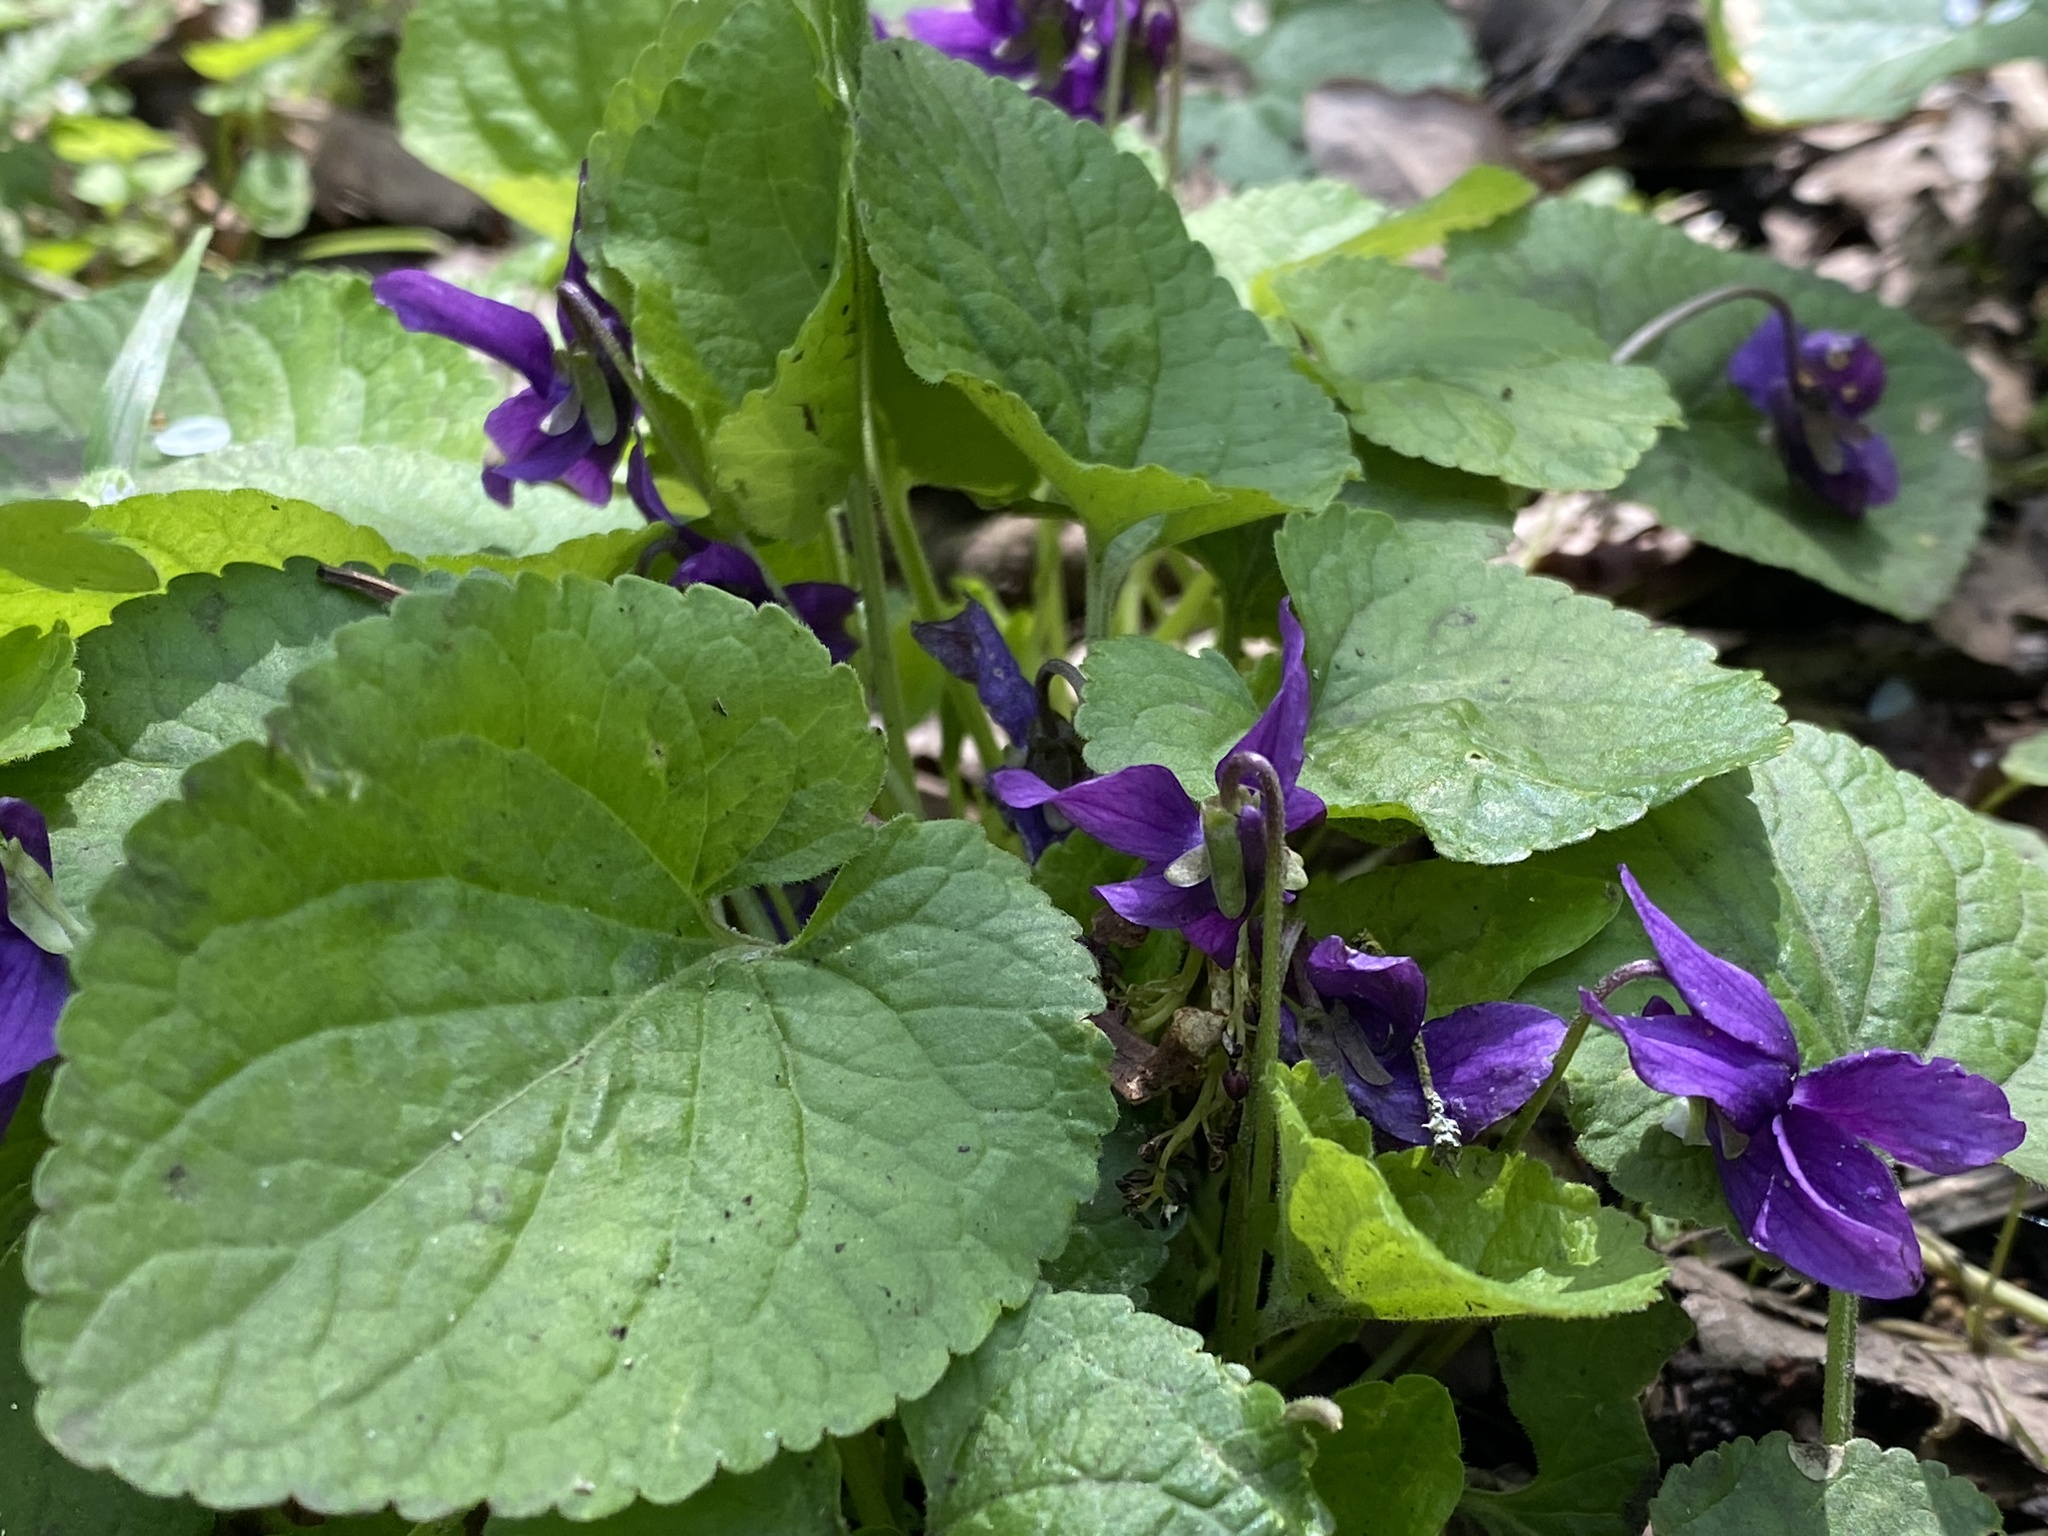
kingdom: Plantae
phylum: Tracheophyta
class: Magnoliopsida
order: Malpighiales
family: Violaceae
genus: Viola
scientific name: Viola odorata
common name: Sweet violet
